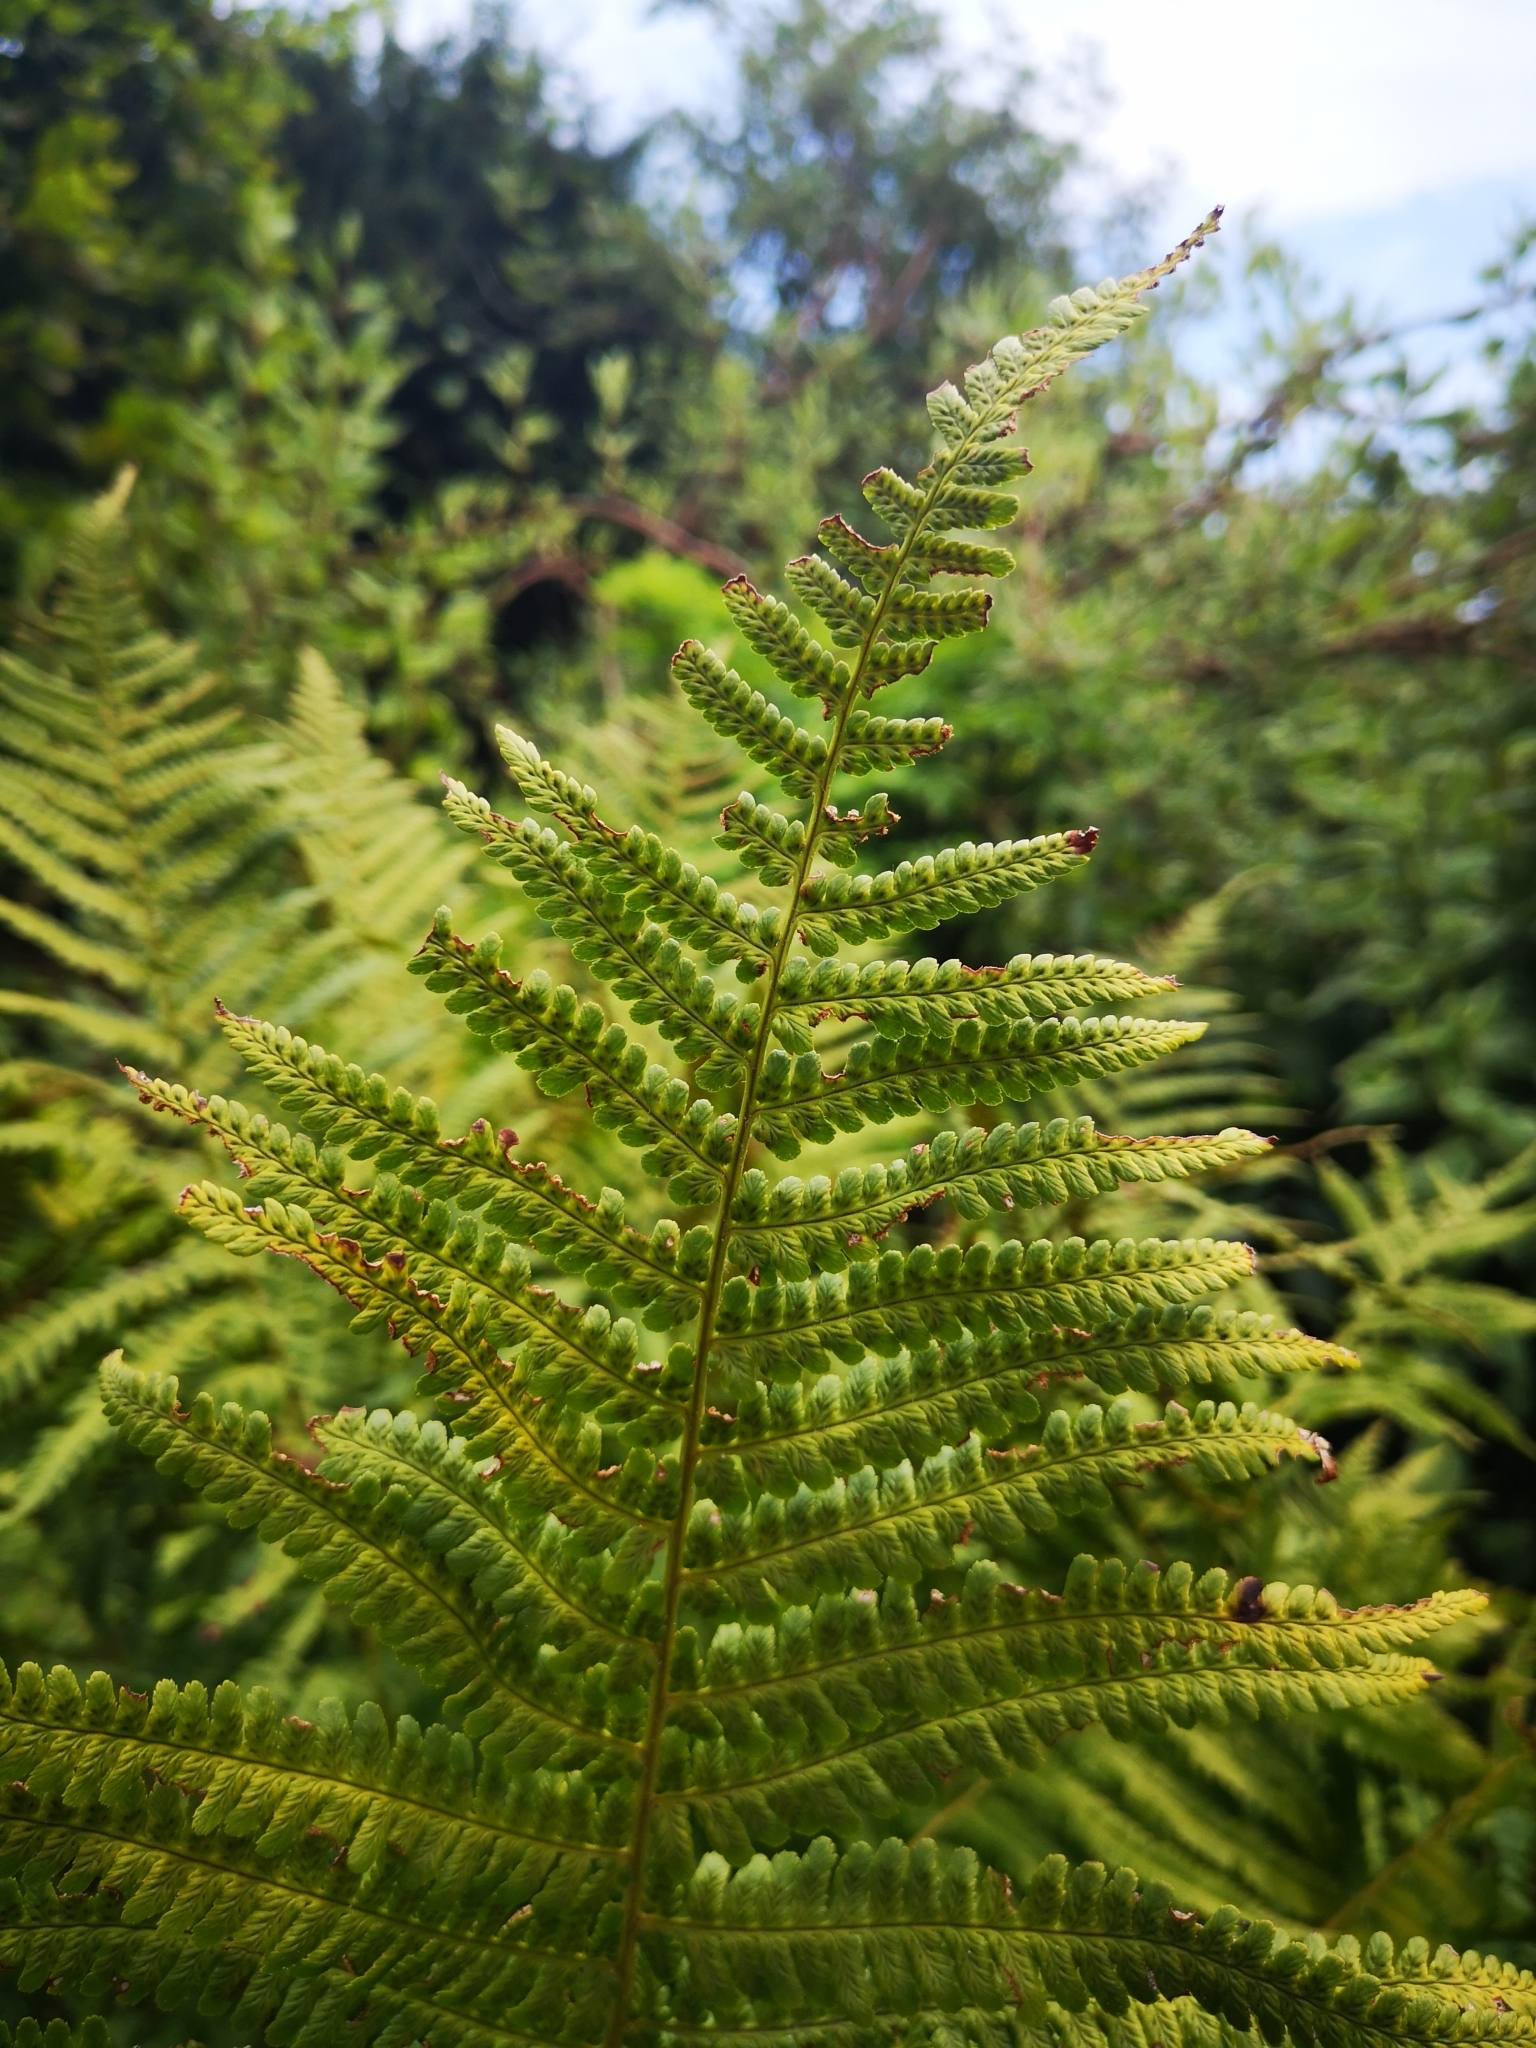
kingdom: Plantae
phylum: Tracheophyta
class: Polypodiopsida
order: Polypodiales
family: Dryopteridaceae
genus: Dryopteris
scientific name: Dryopteris filix-mas
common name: Male fern
